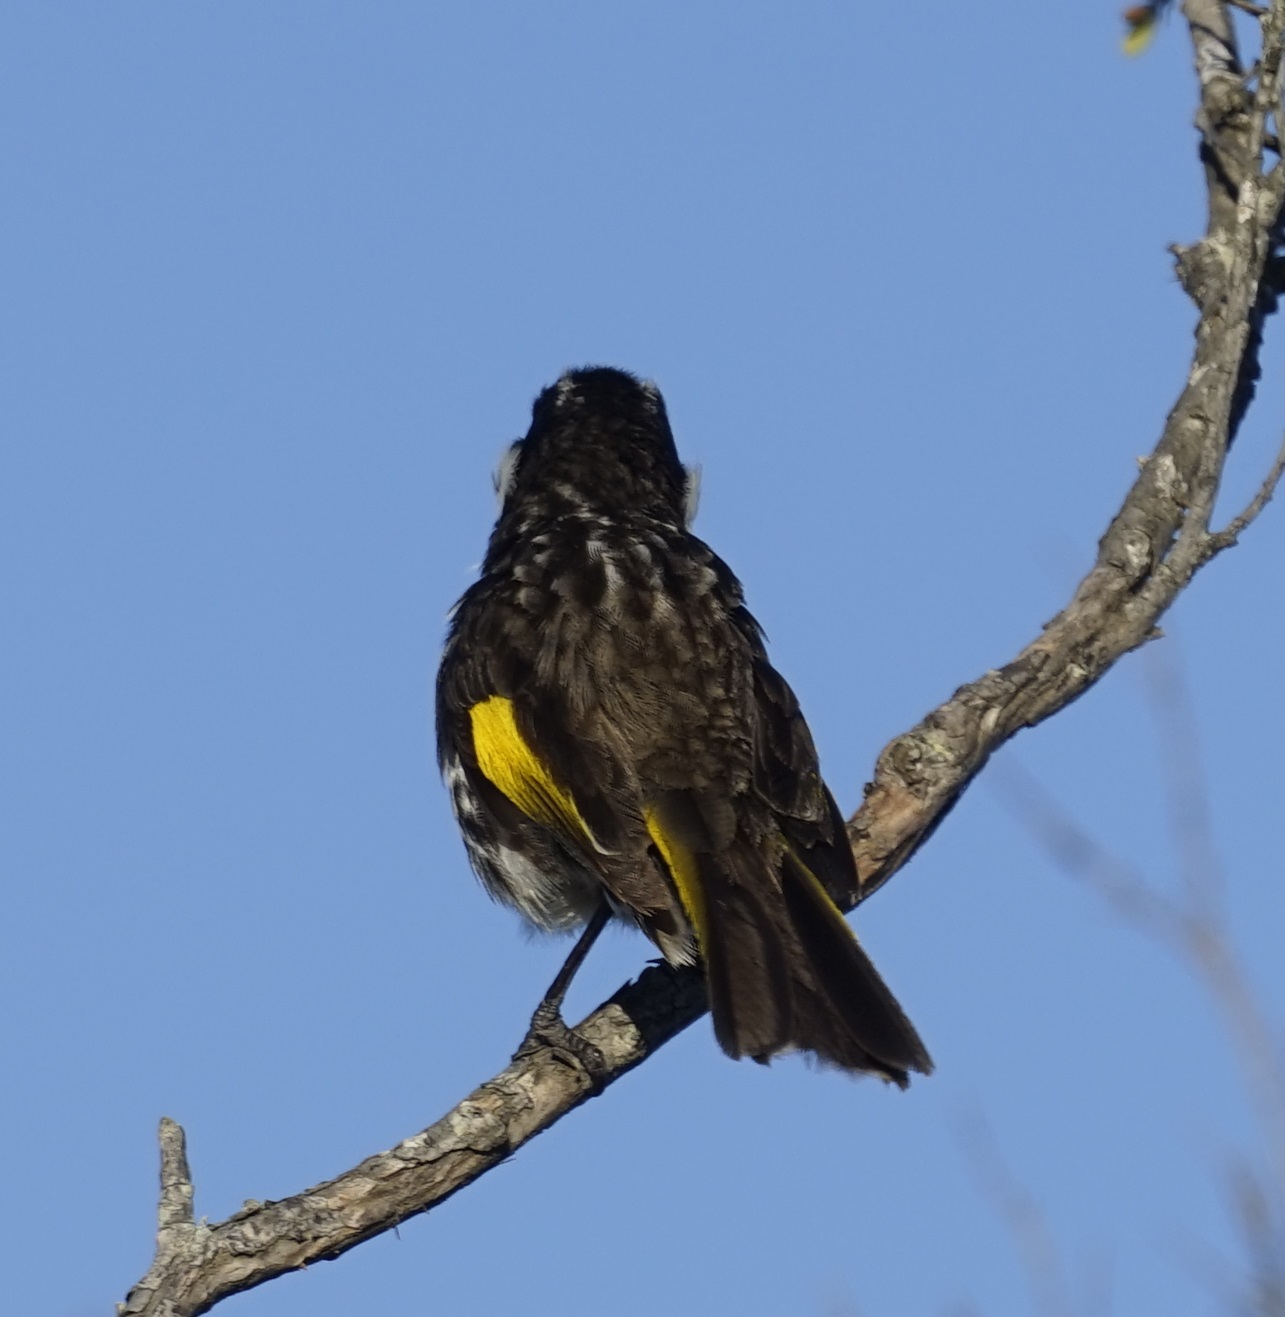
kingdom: Animalia
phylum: Chordata
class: Aves
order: Passeriformes
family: Meliphagidae
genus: Phylidonyris
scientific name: Phylidonyris novaehollandiae
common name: New holland honeyeater
